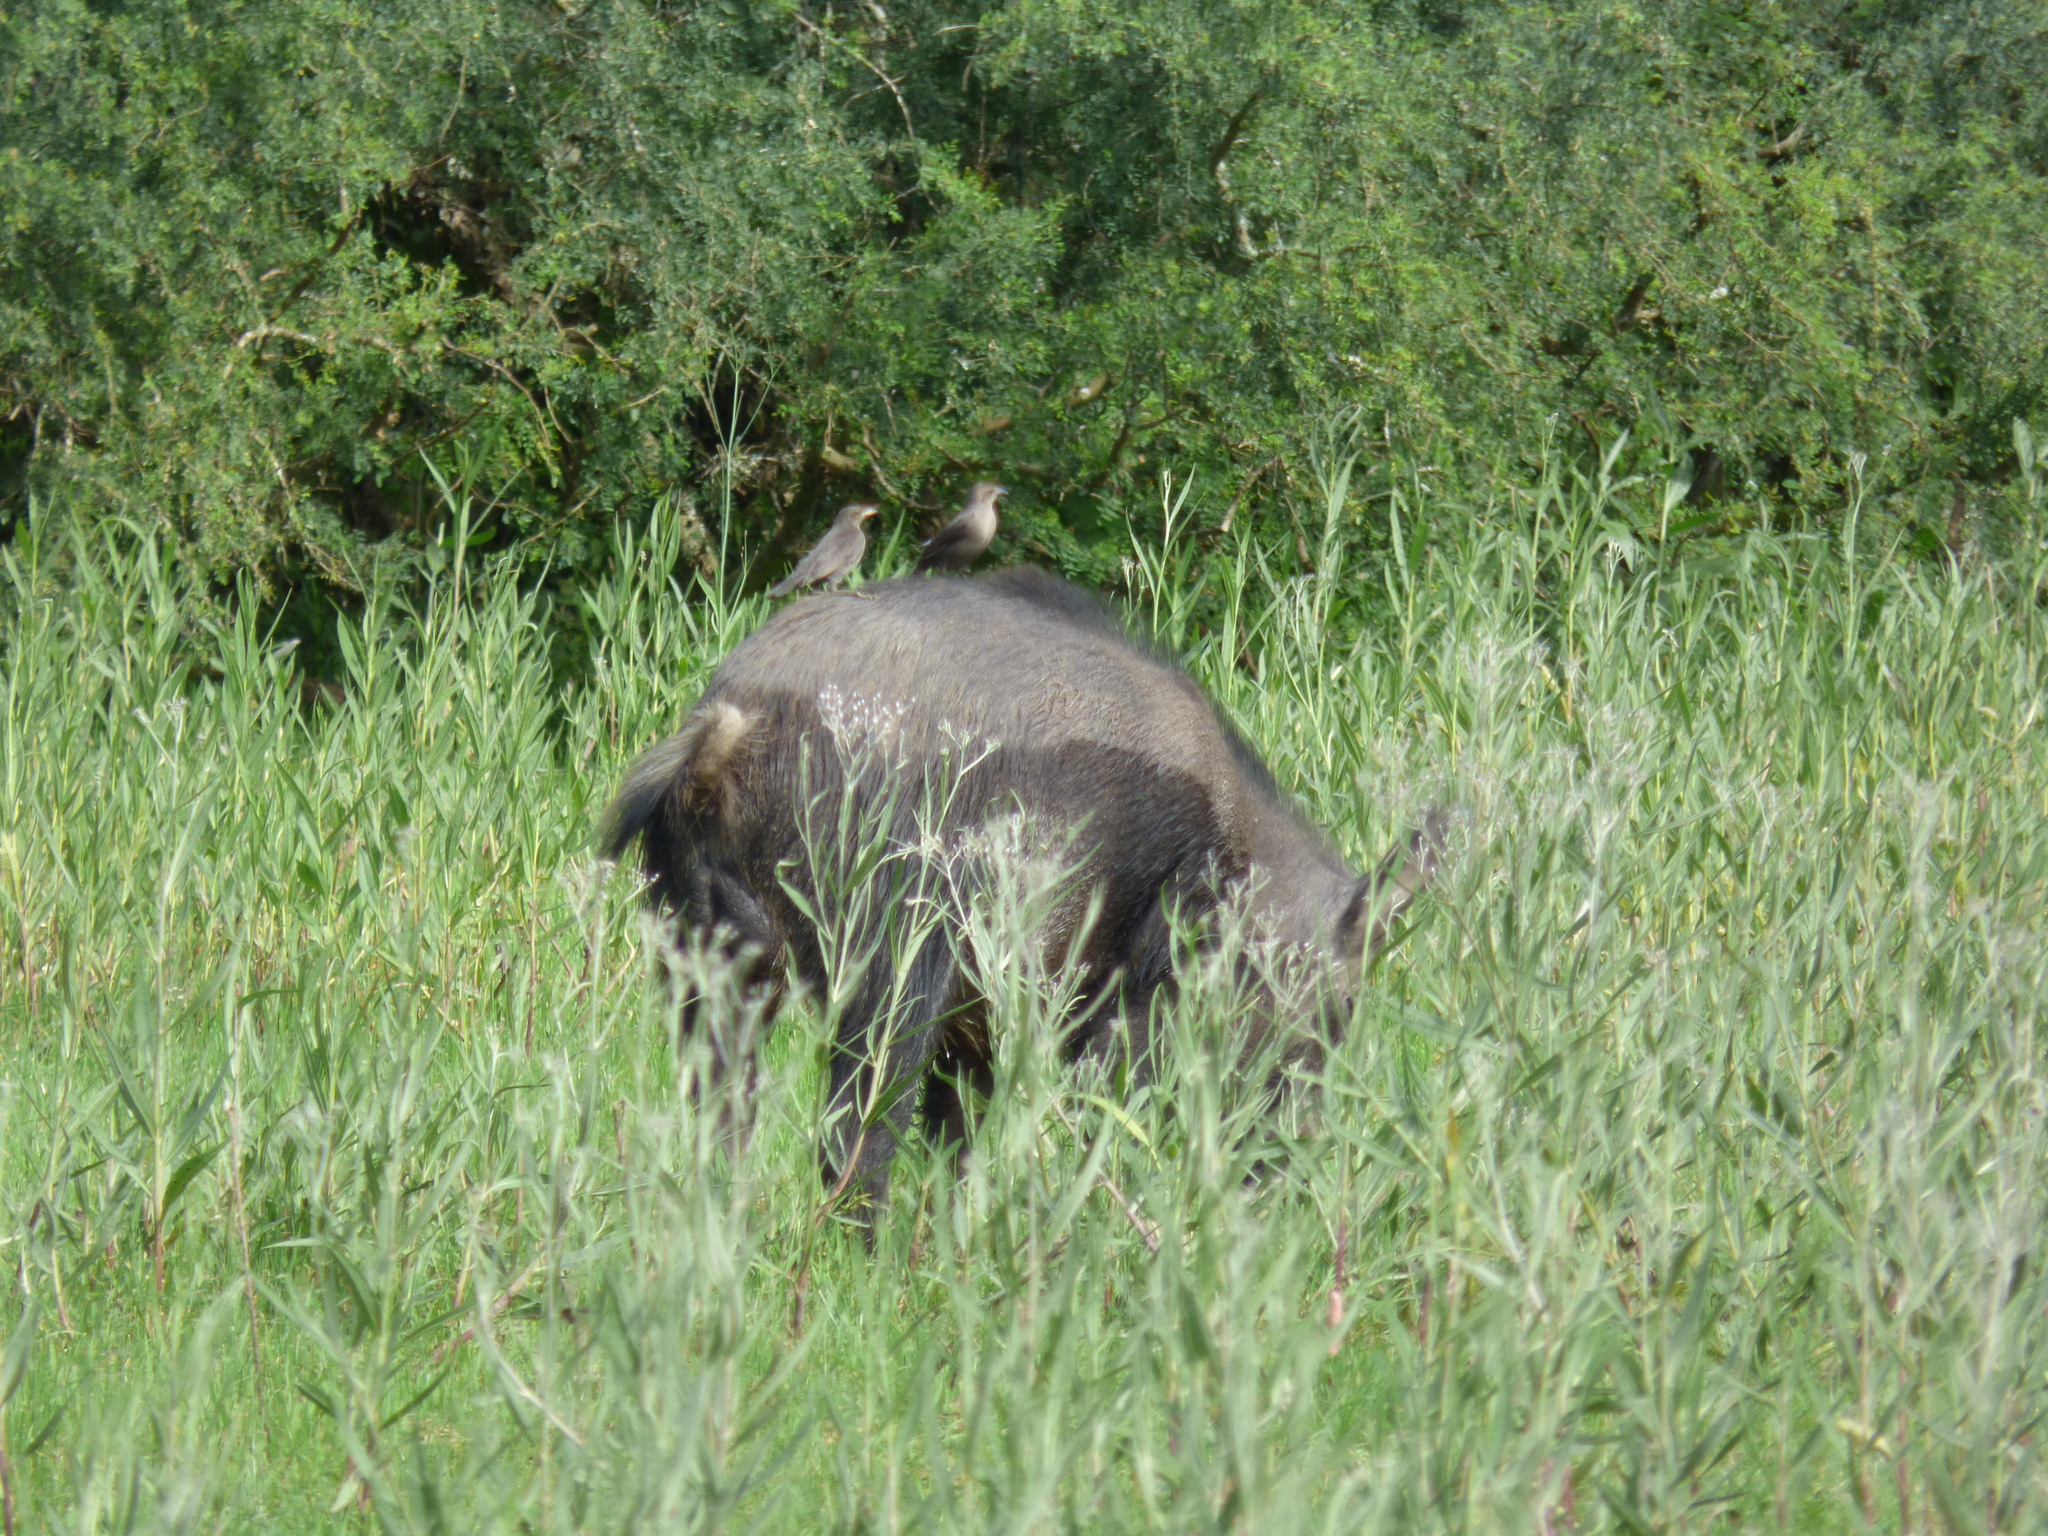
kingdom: Animalia
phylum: Chordata
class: Mammalia
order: Artiodactyla
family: Suidae
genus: Sus
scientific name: Sus scrofa
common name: Wild boar
